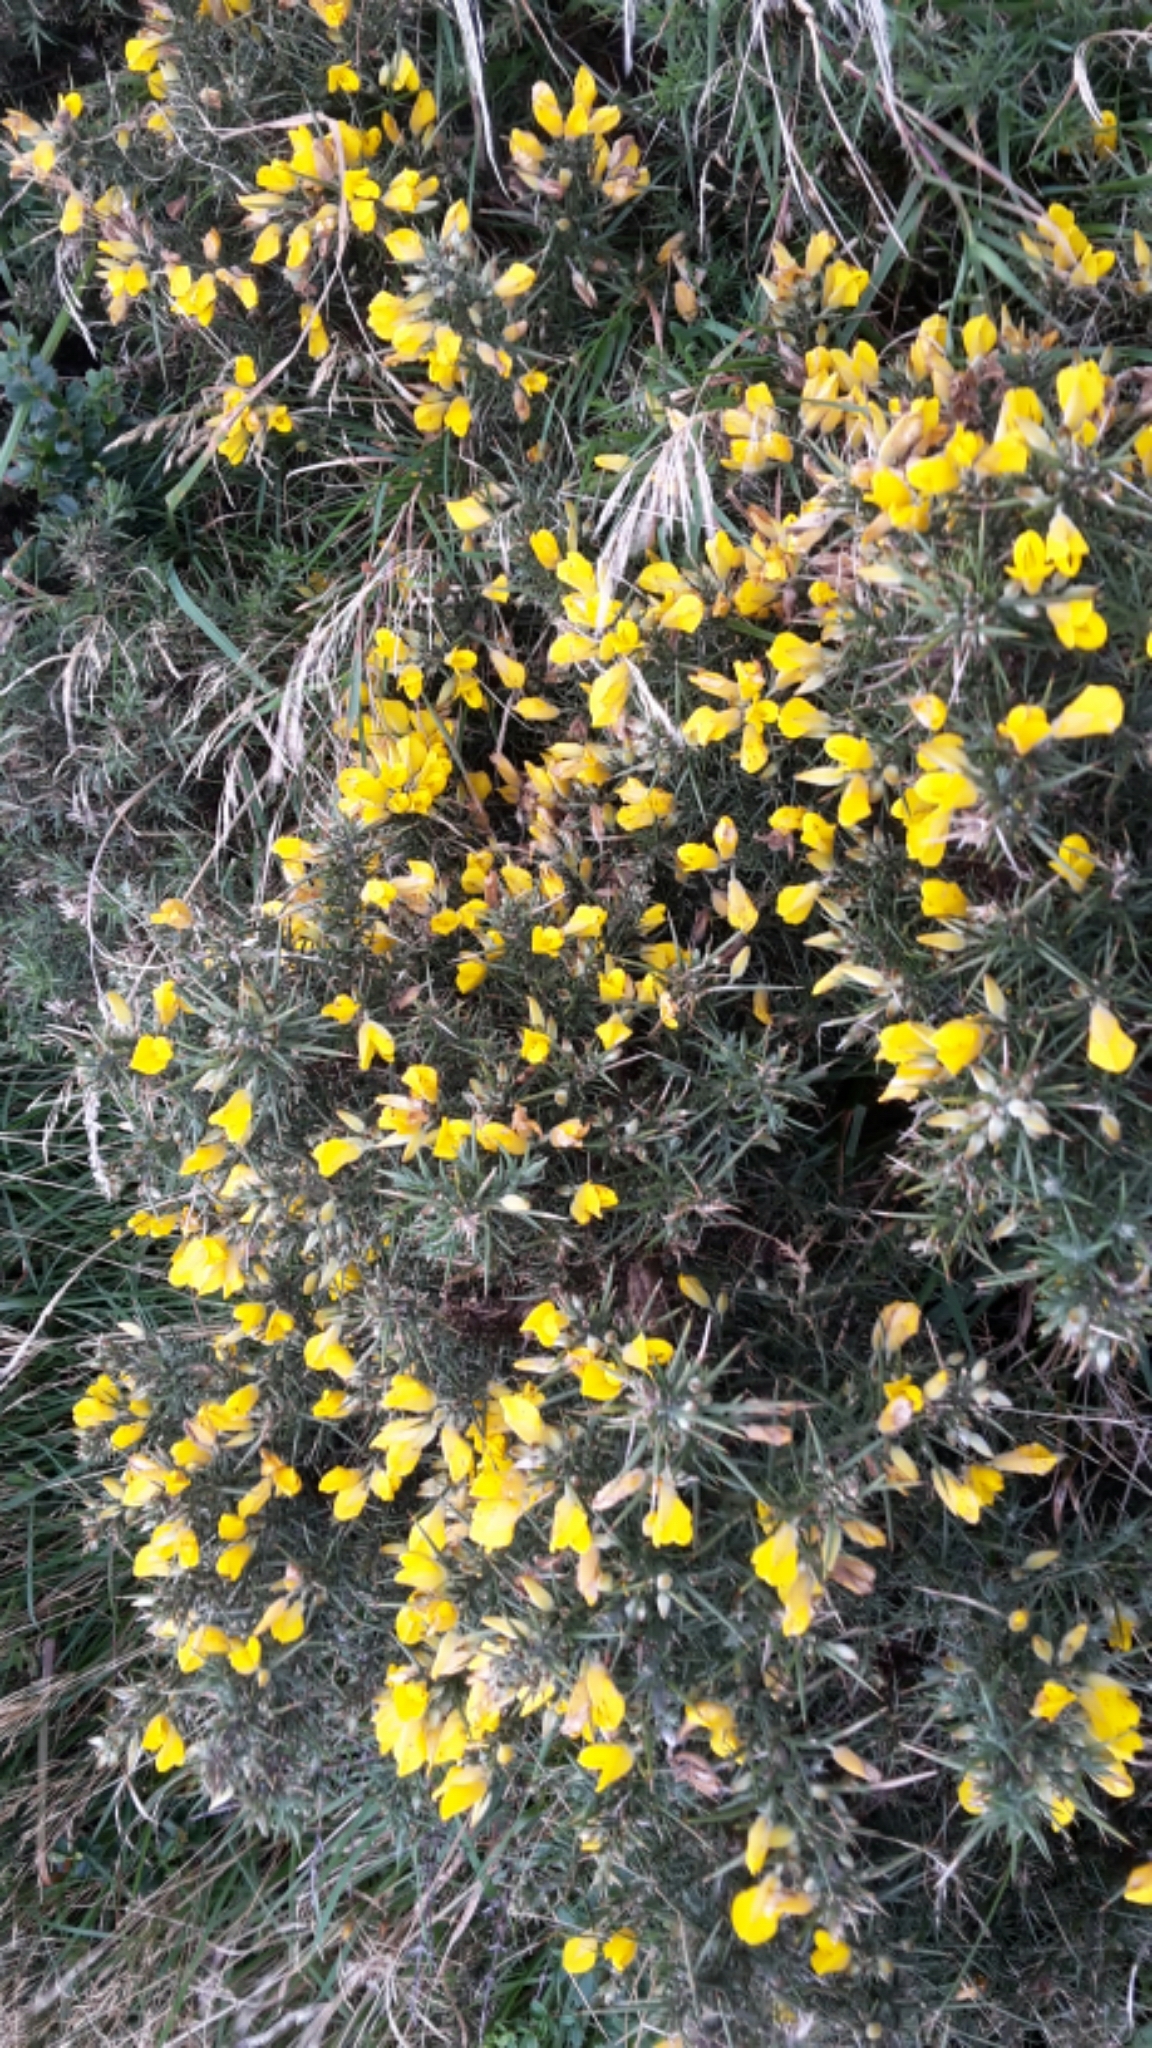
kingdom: Plantae
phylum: Tracheophyta
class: Magnoliopsida
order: Fabales
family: Fabaceae
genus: Ulex
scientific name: Ulex europaeus
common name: Common gorse
